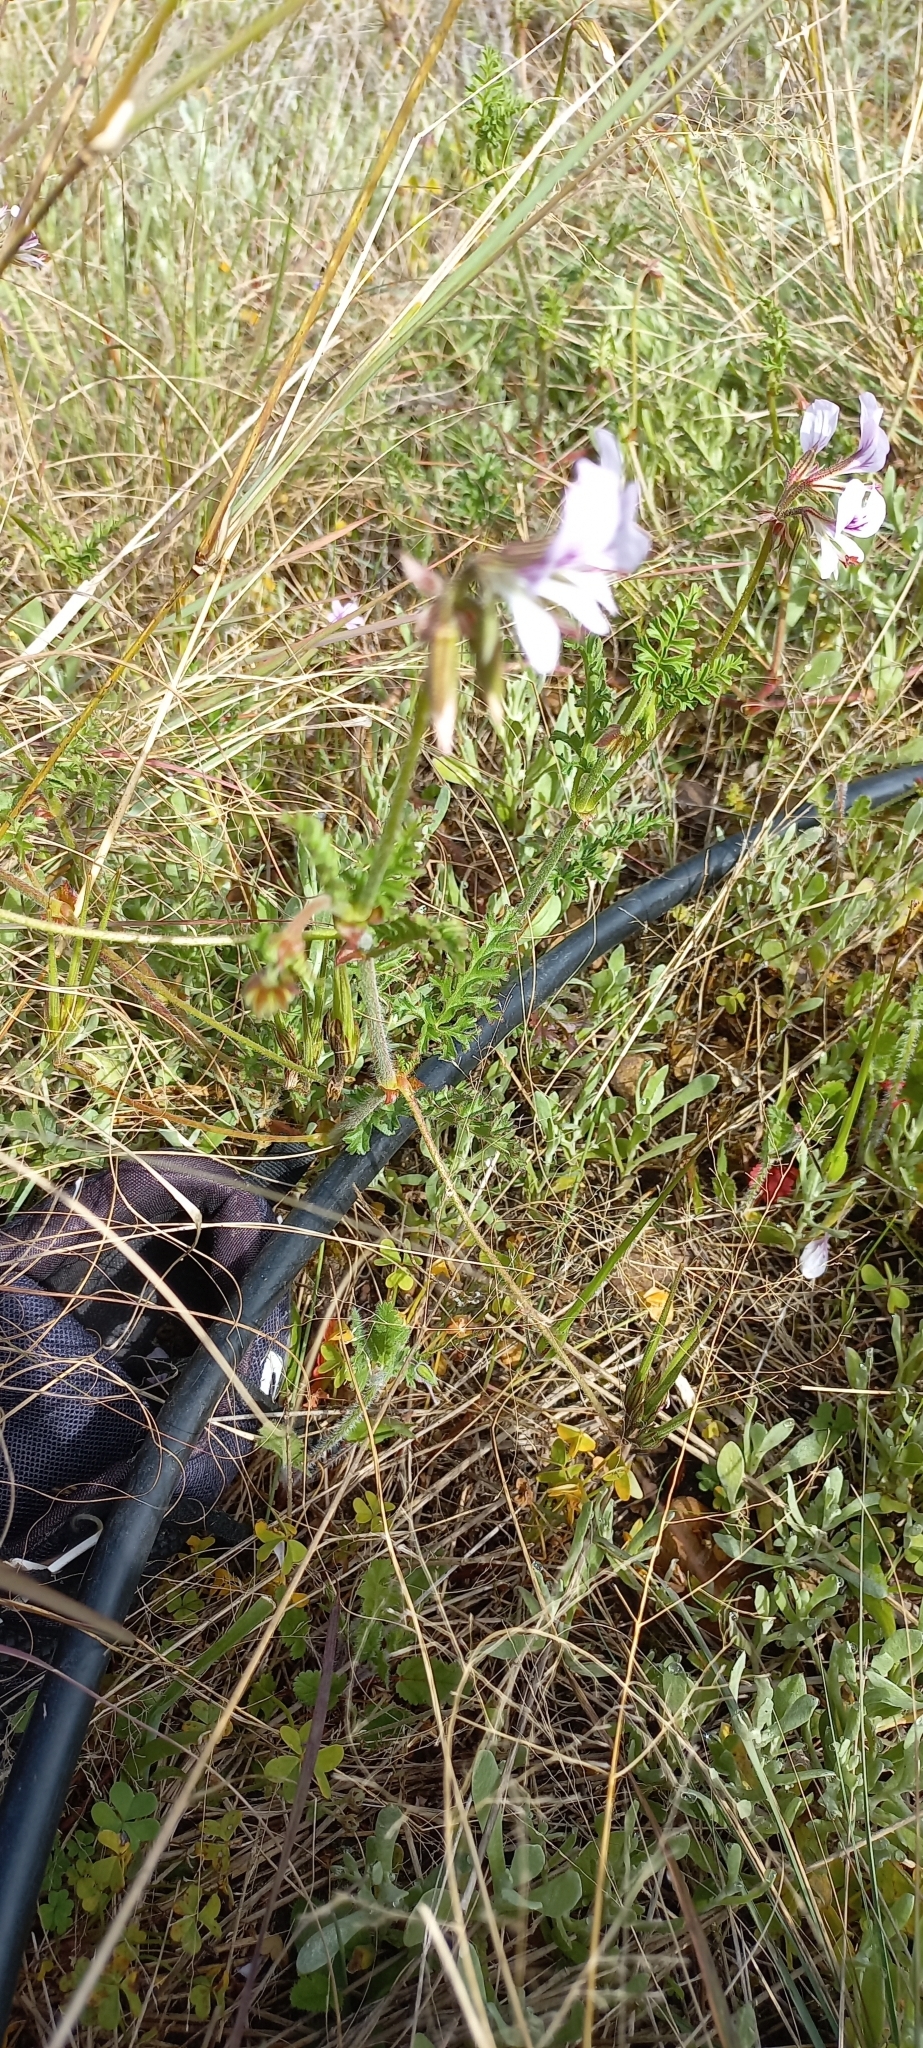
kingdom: Plantae
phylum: Tracheophyta
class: Magnoliopsida
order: Geraniales
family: Geraniaceae
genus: Pelargonium
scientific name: Pelargonium myrrhifolium
